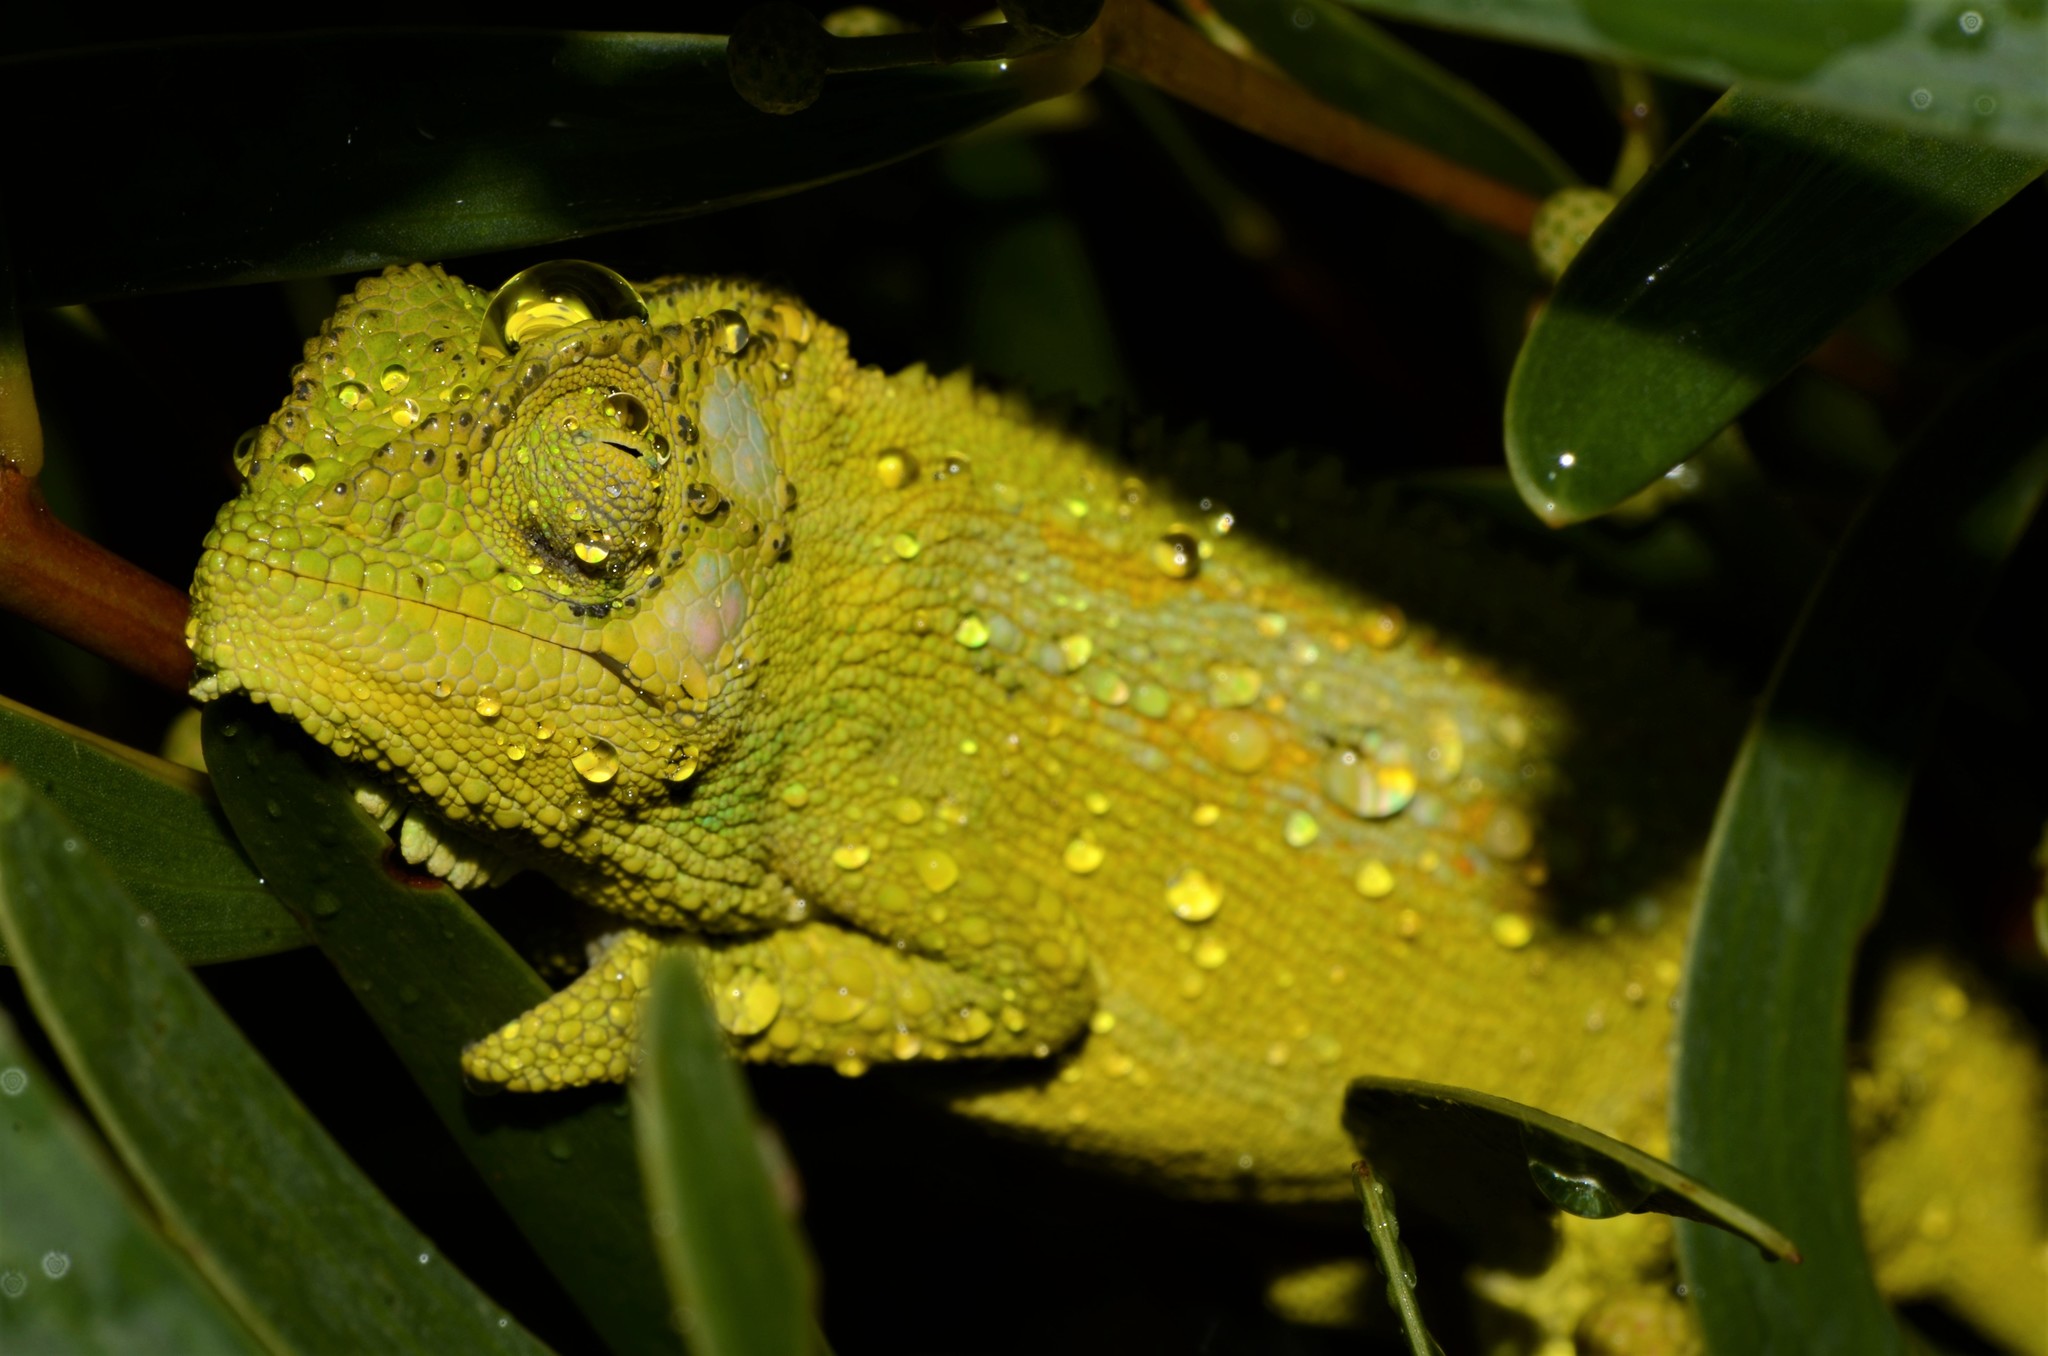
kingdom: Animalia
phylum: Chordata
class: Squamata
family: Chamaeleonidae
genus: Bradypodion
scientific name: Bradypodion pumilum
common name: Cape dwarf chameleon
